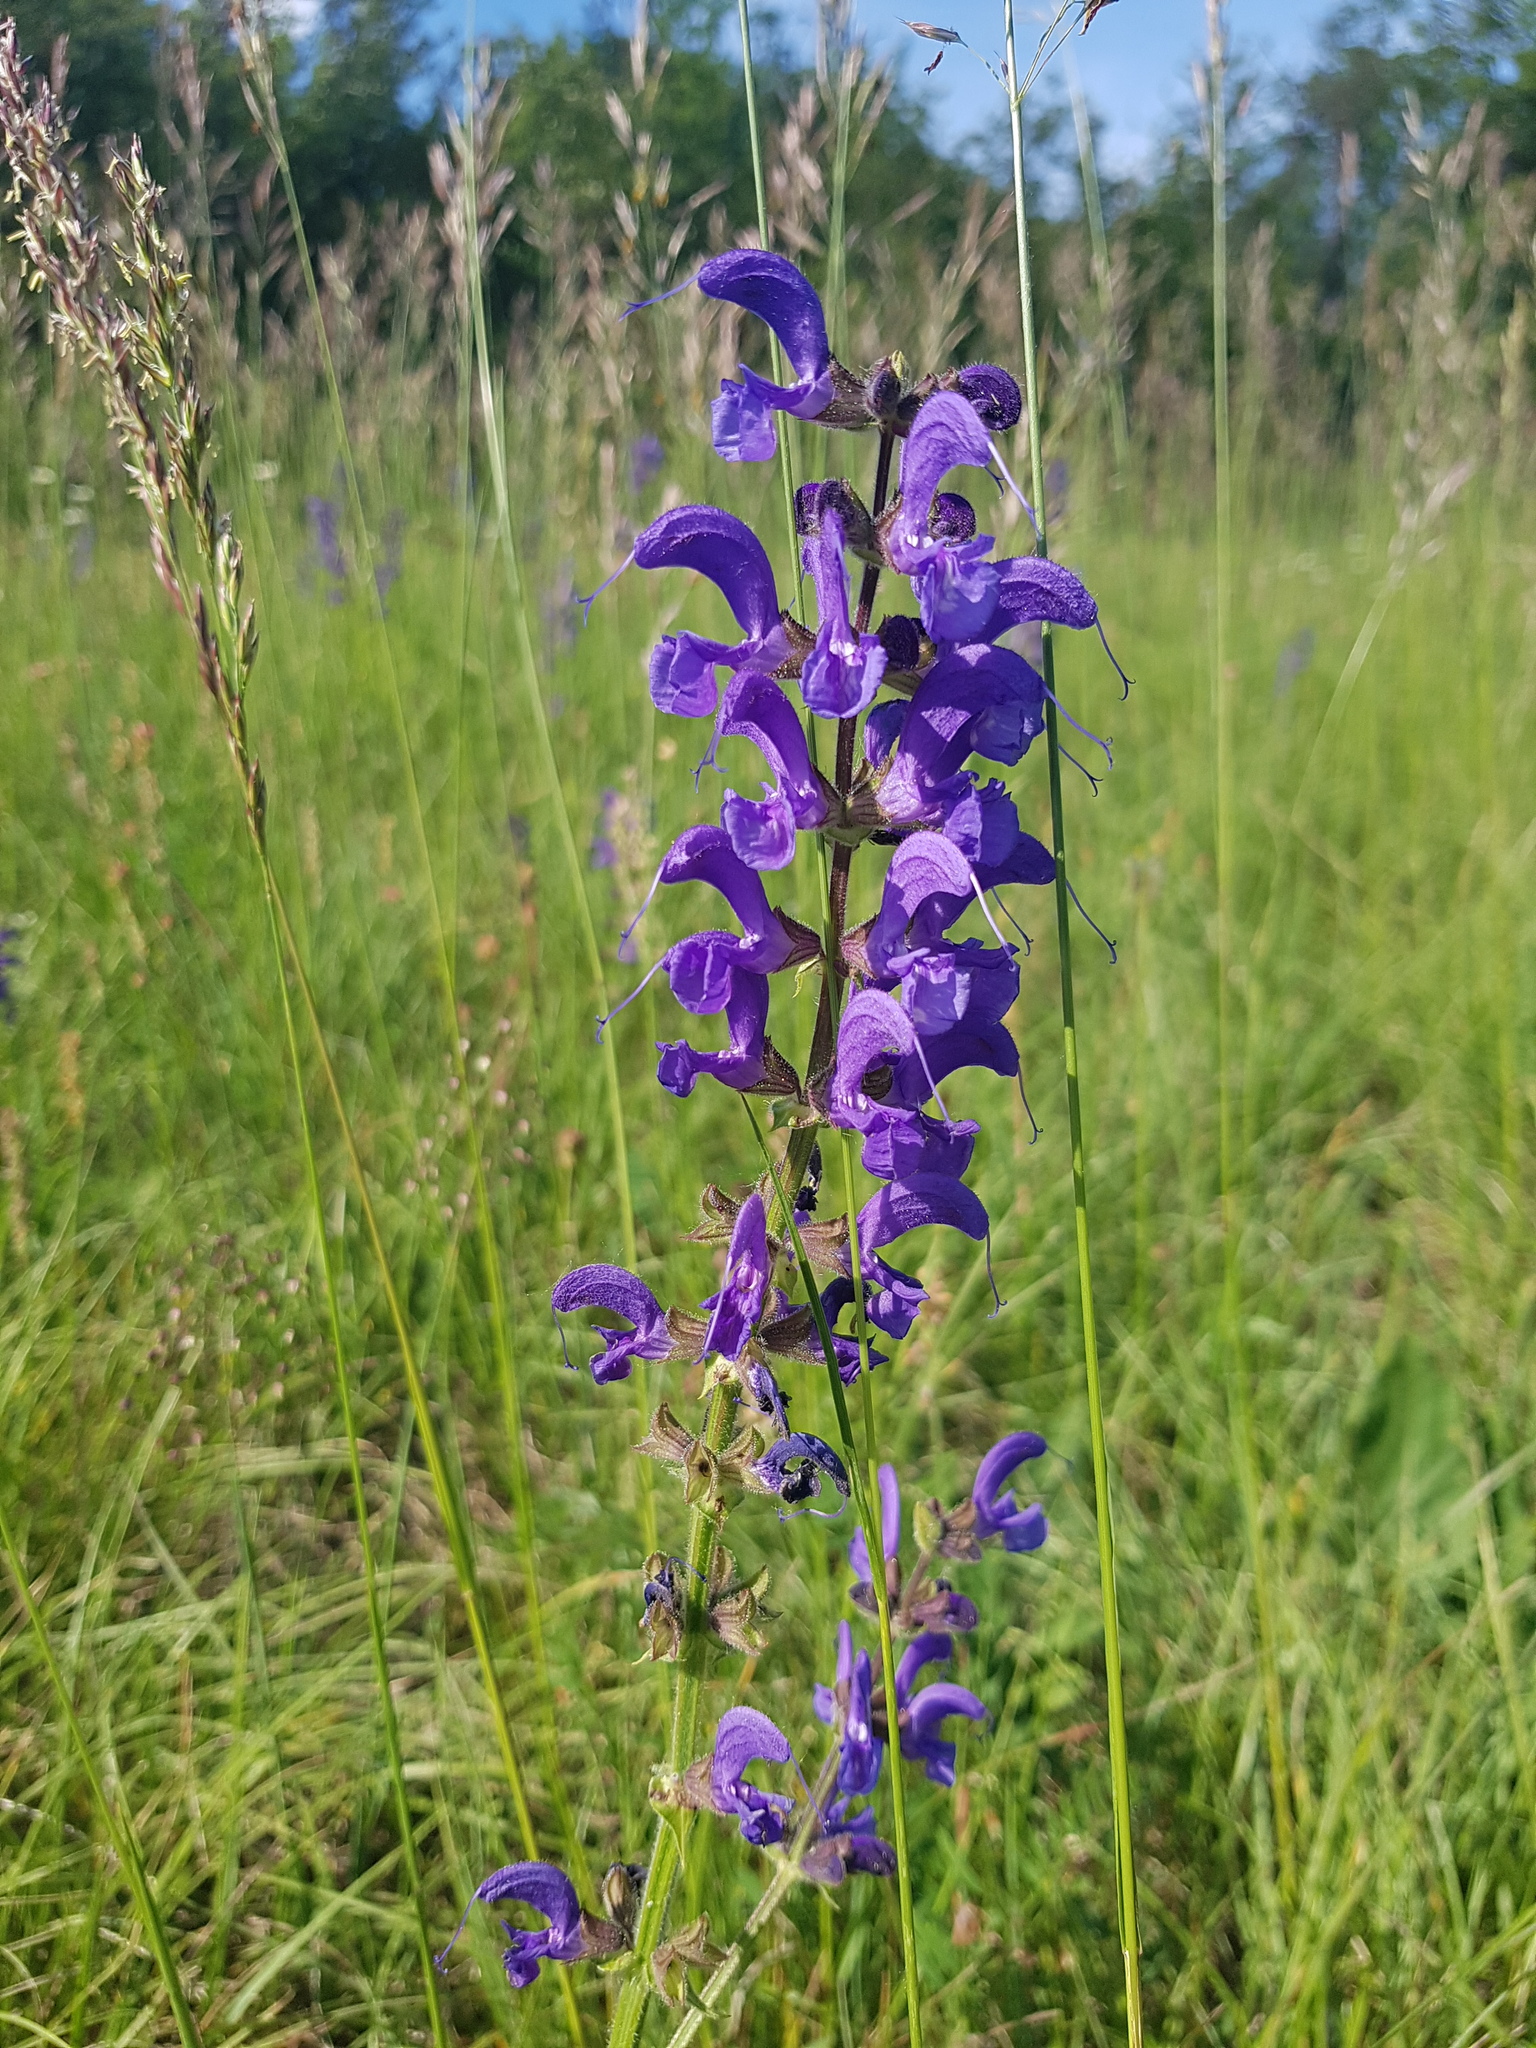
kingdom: Plantae
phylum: Tracheophyta
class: Magnoliopsida
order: Lamiales
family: Lamiaceae
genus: Salvia
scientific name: Salvia pratensis
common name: Meadow sage
